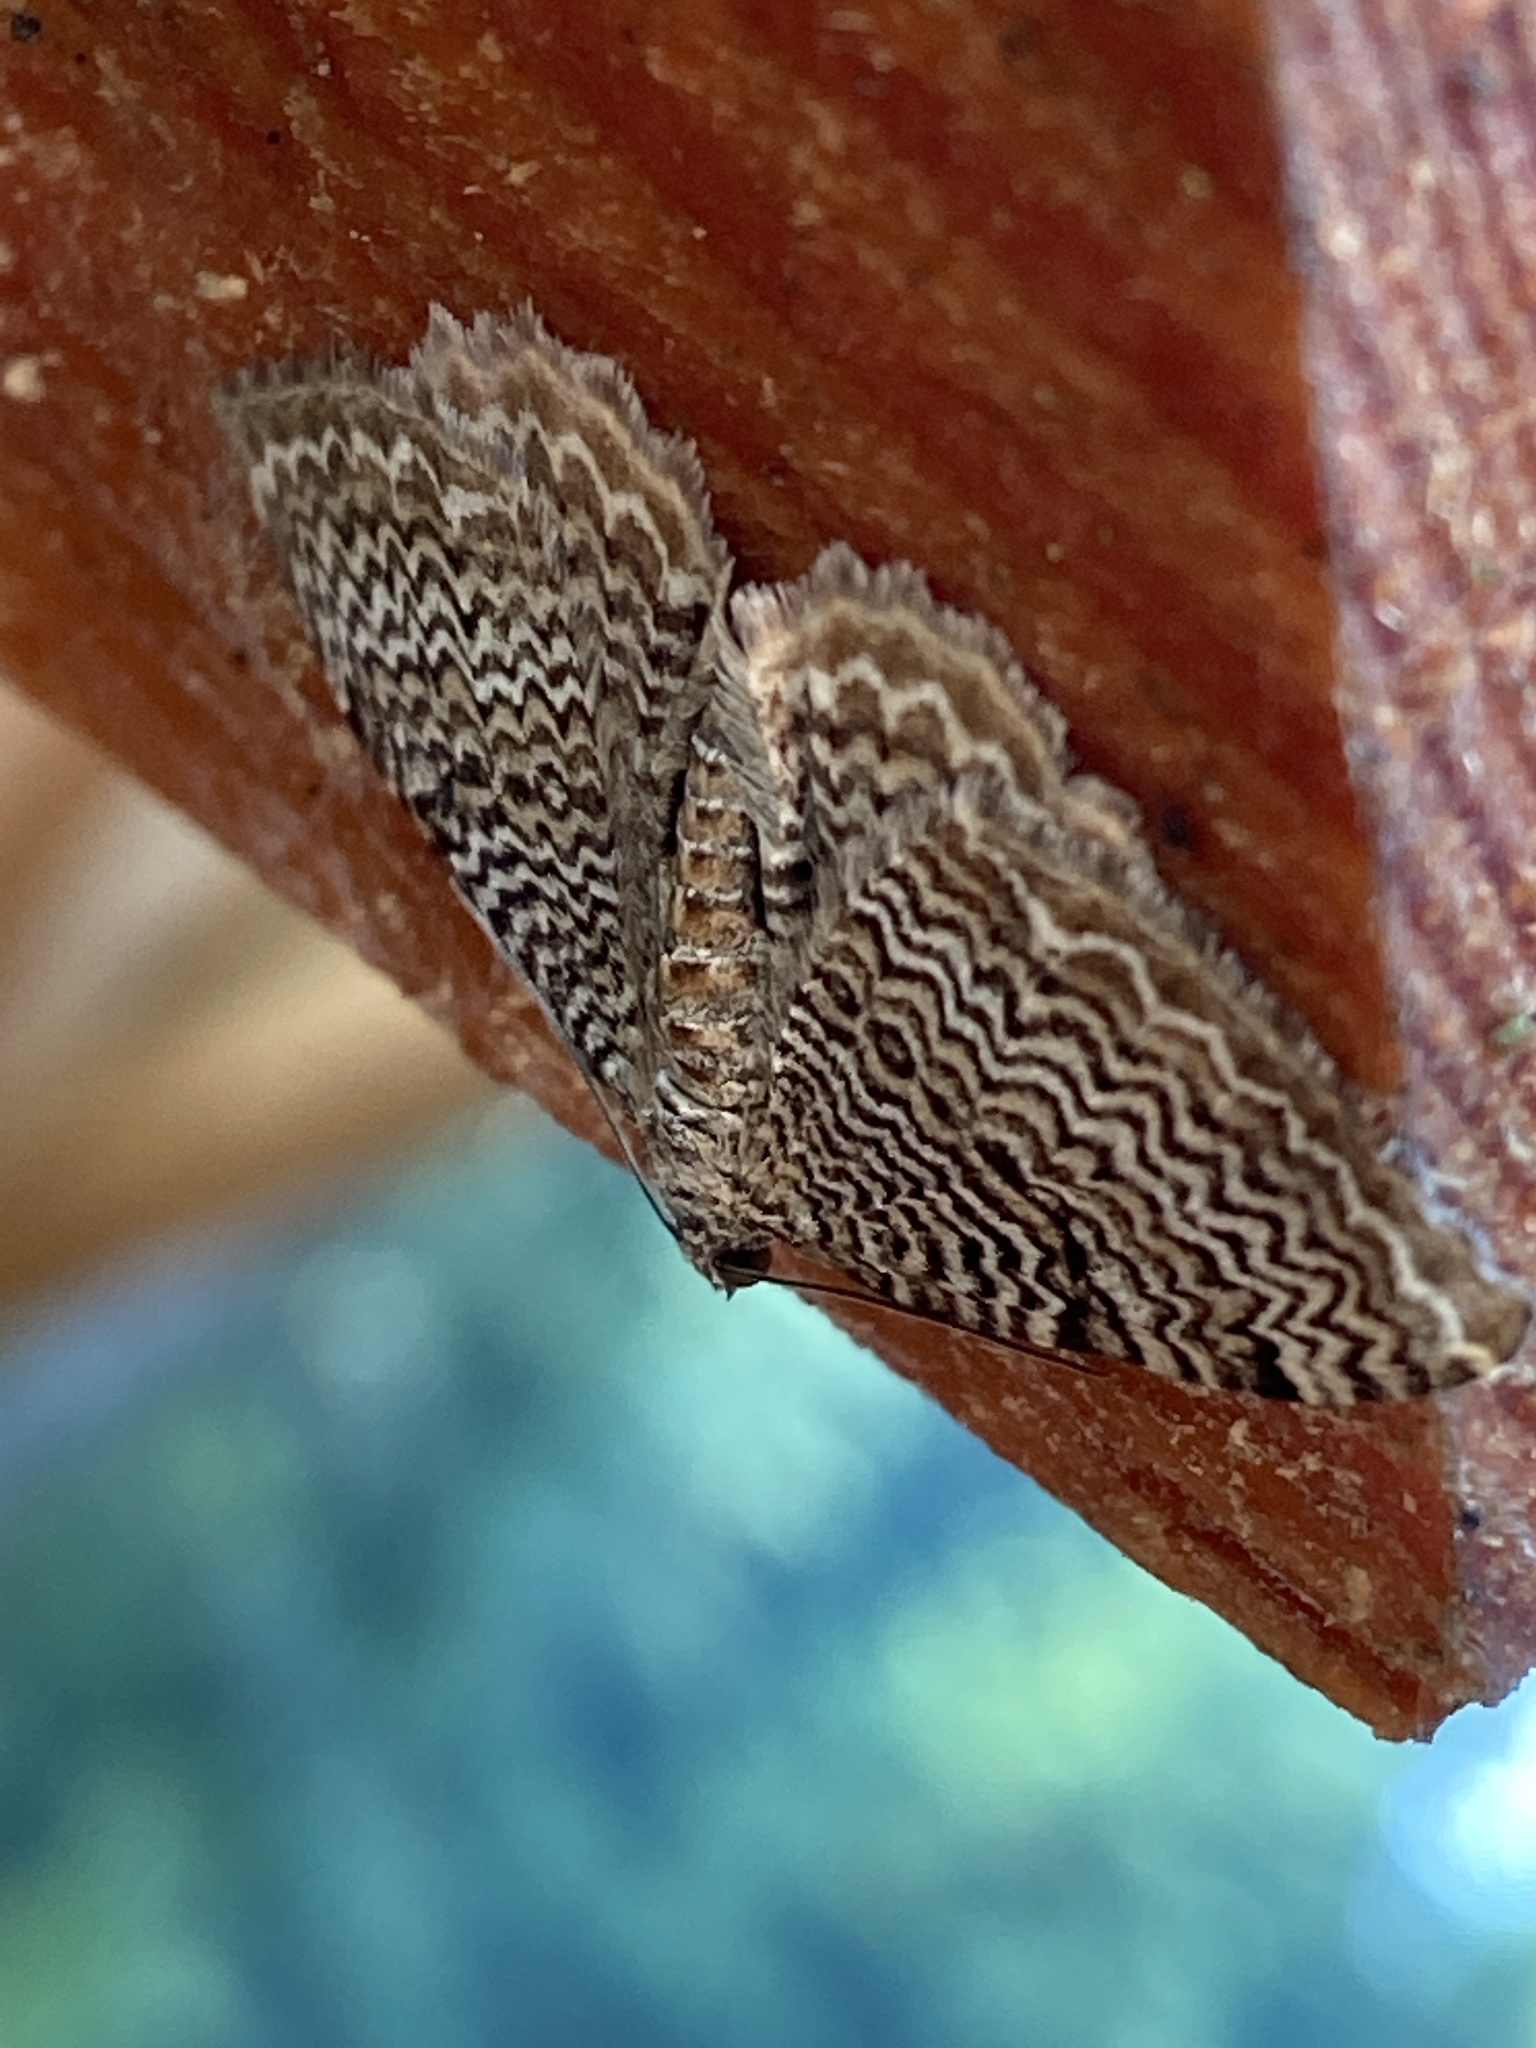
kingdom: Animalia
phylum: Arthropoda
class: Insecta
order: Lepidoptera
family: Geometridae
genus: Rheumaptera
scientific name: Rheumaptera undulata
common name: Scallop shell
